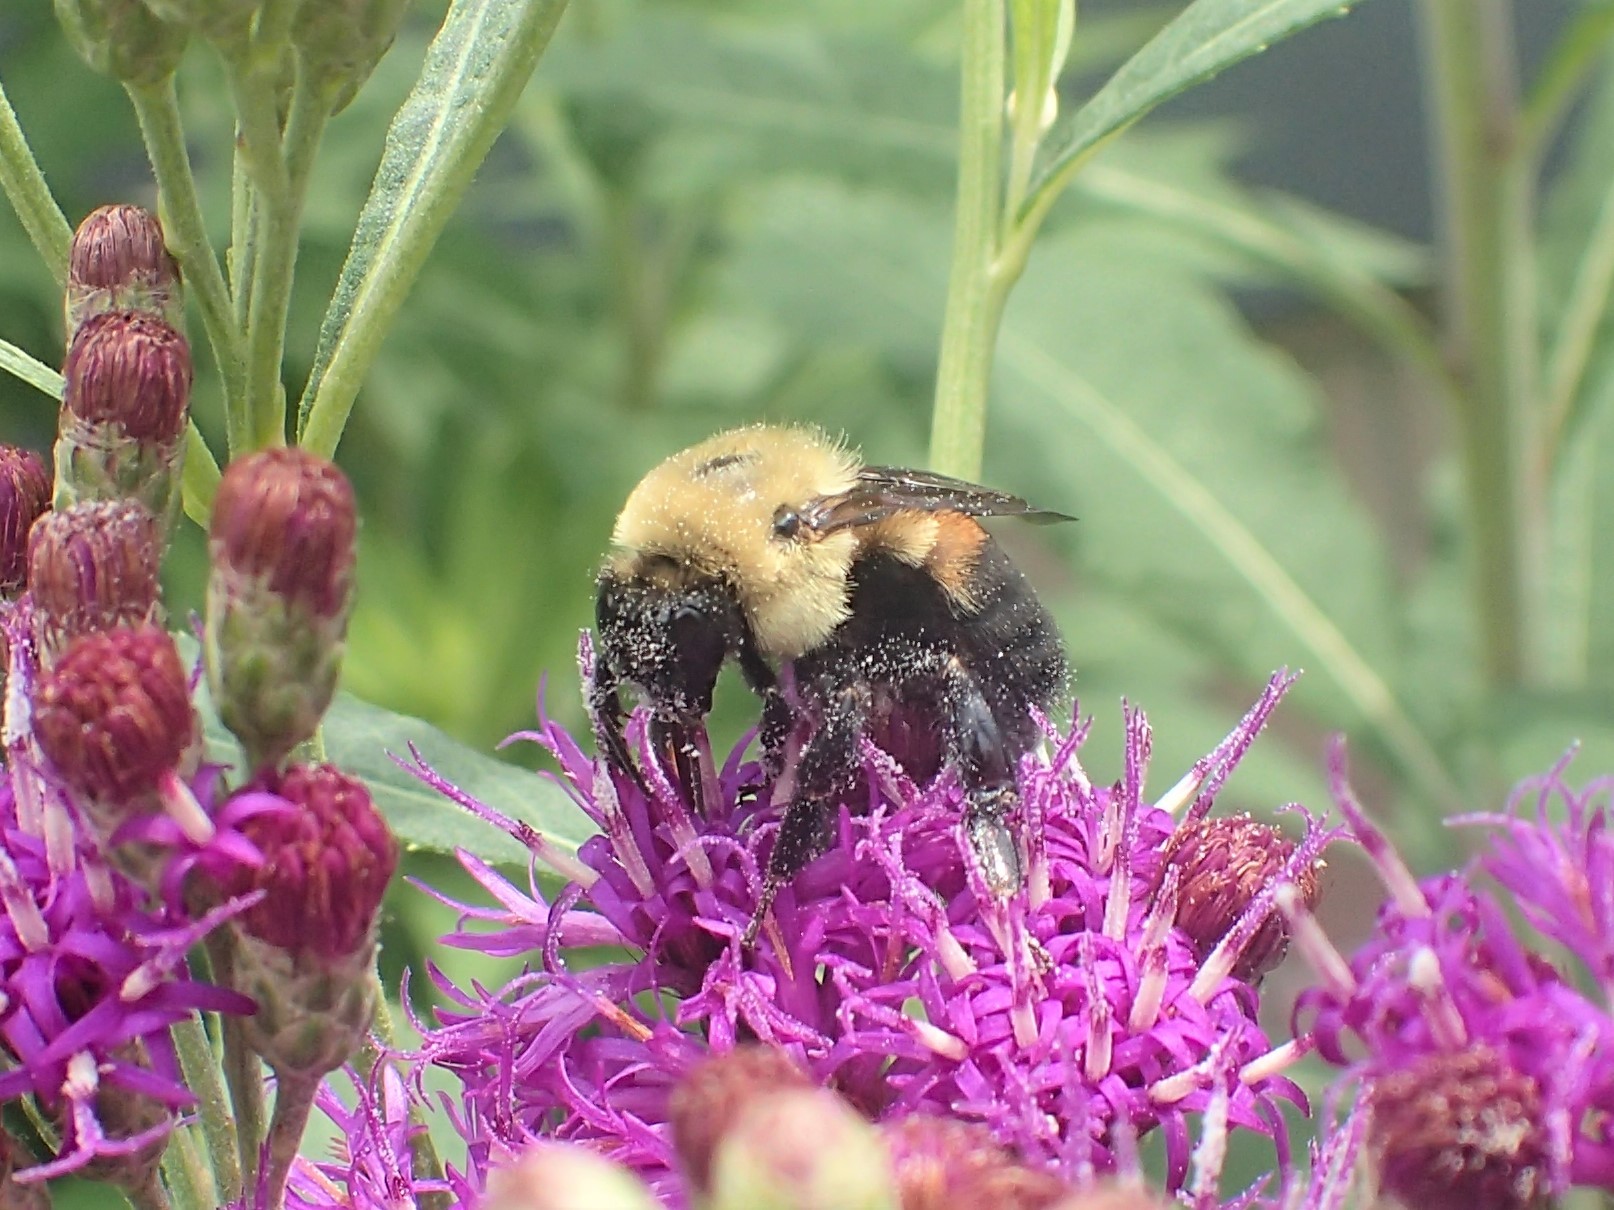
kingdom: Animalia
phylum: Arthropoda
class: Insecta
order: Hymenoptera
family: Apidae
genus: Bombus
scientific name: Bombus griseocollis
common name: Brown-belted bumble bee
